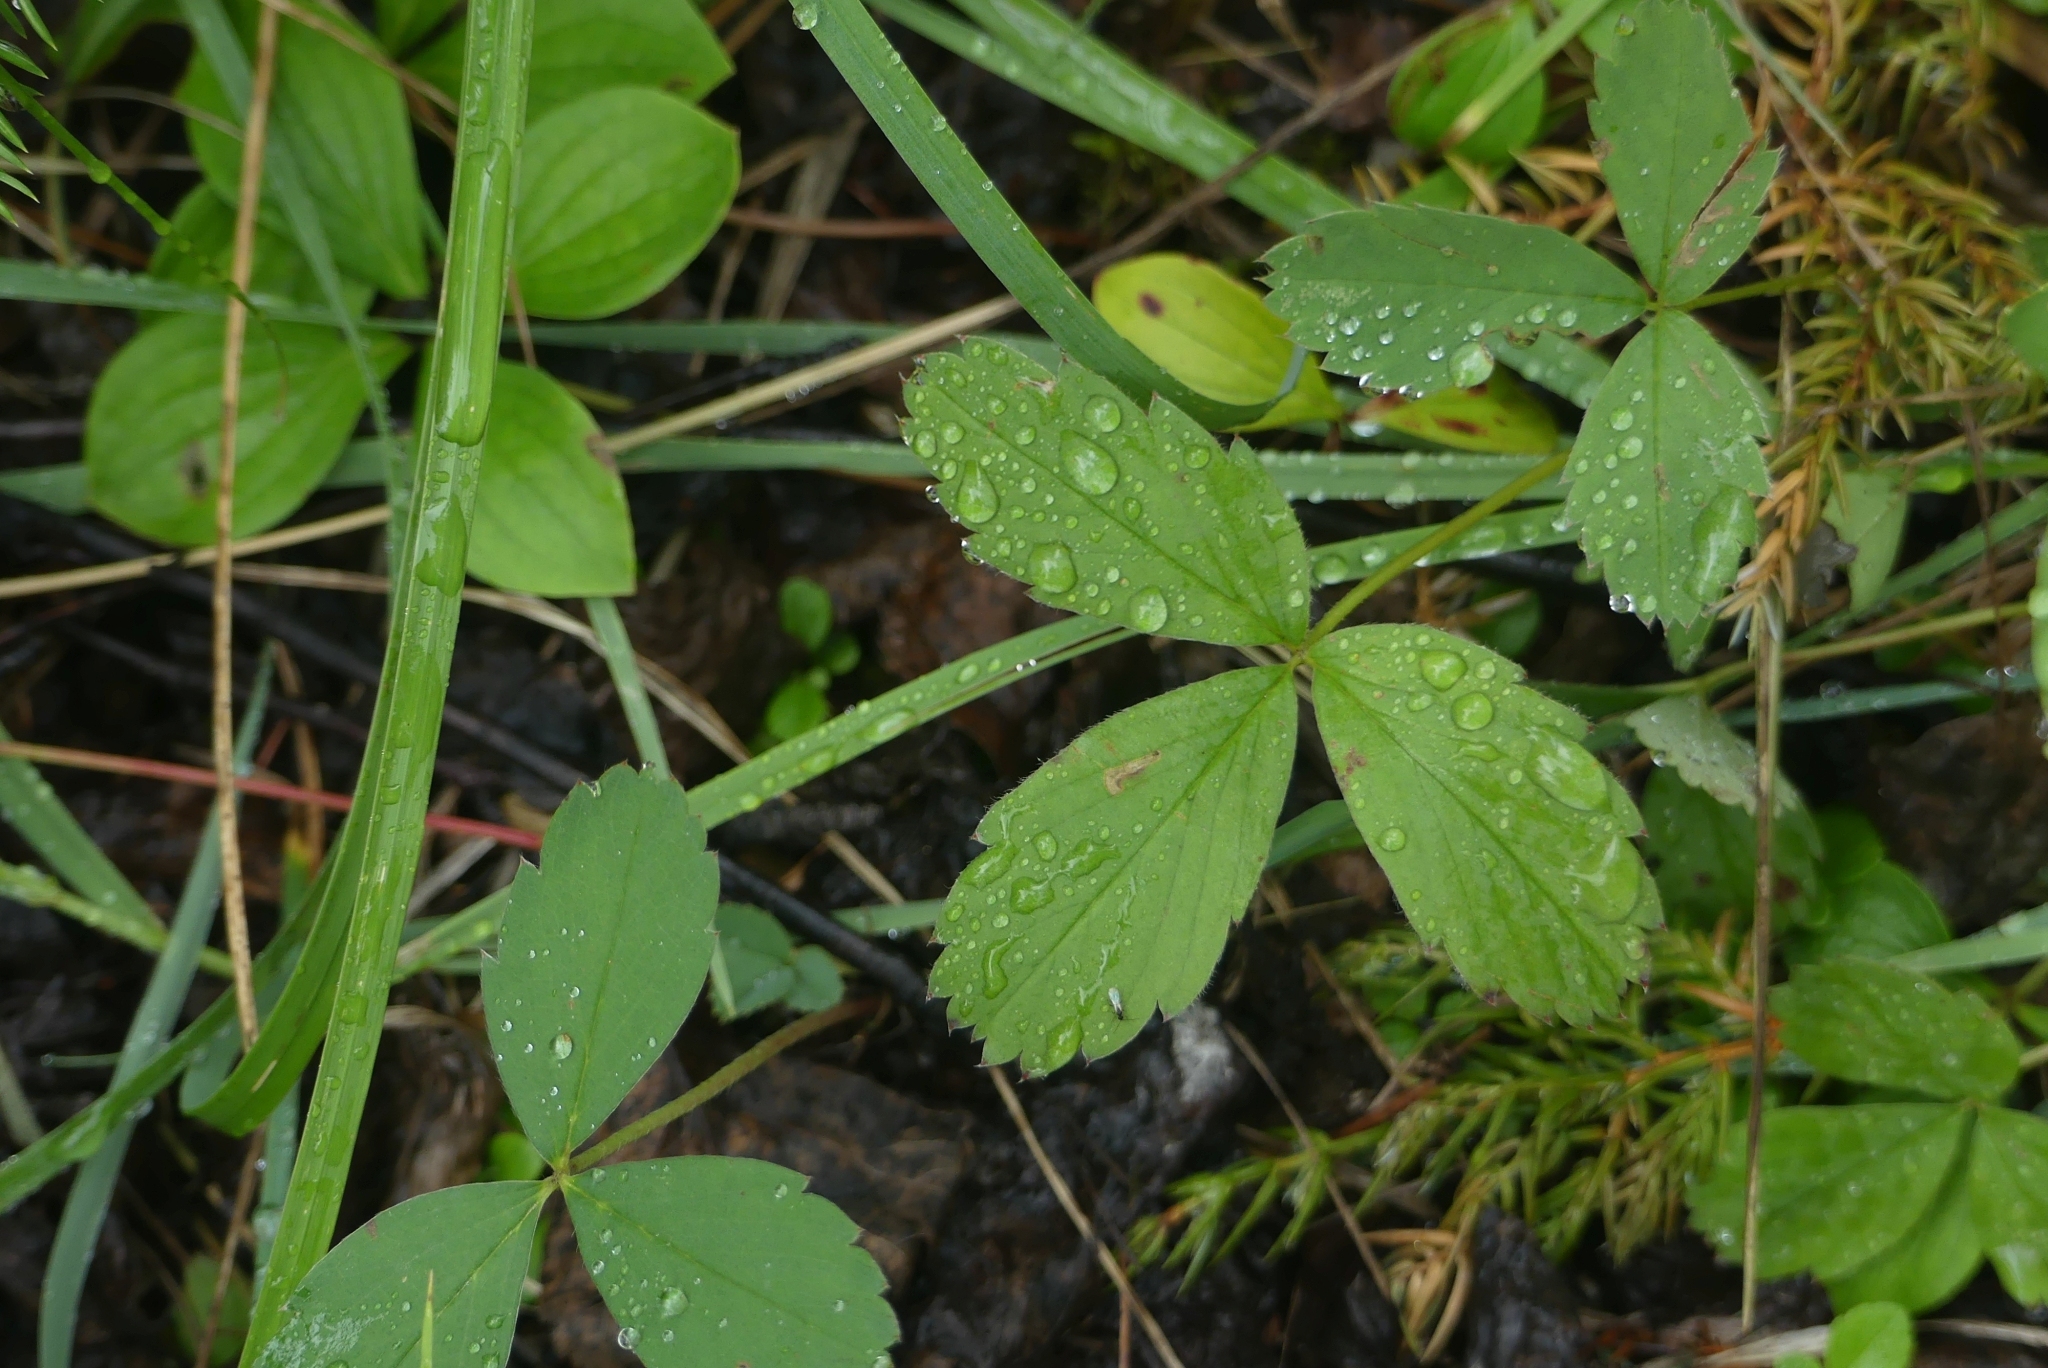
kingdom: Plantae
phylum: Tracheophyta
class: Magnoliopsida
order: Rosales
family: Rosaceae
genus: Fragaria
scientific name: Fragaria virginiana
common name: Thickleaved wild strawberry
